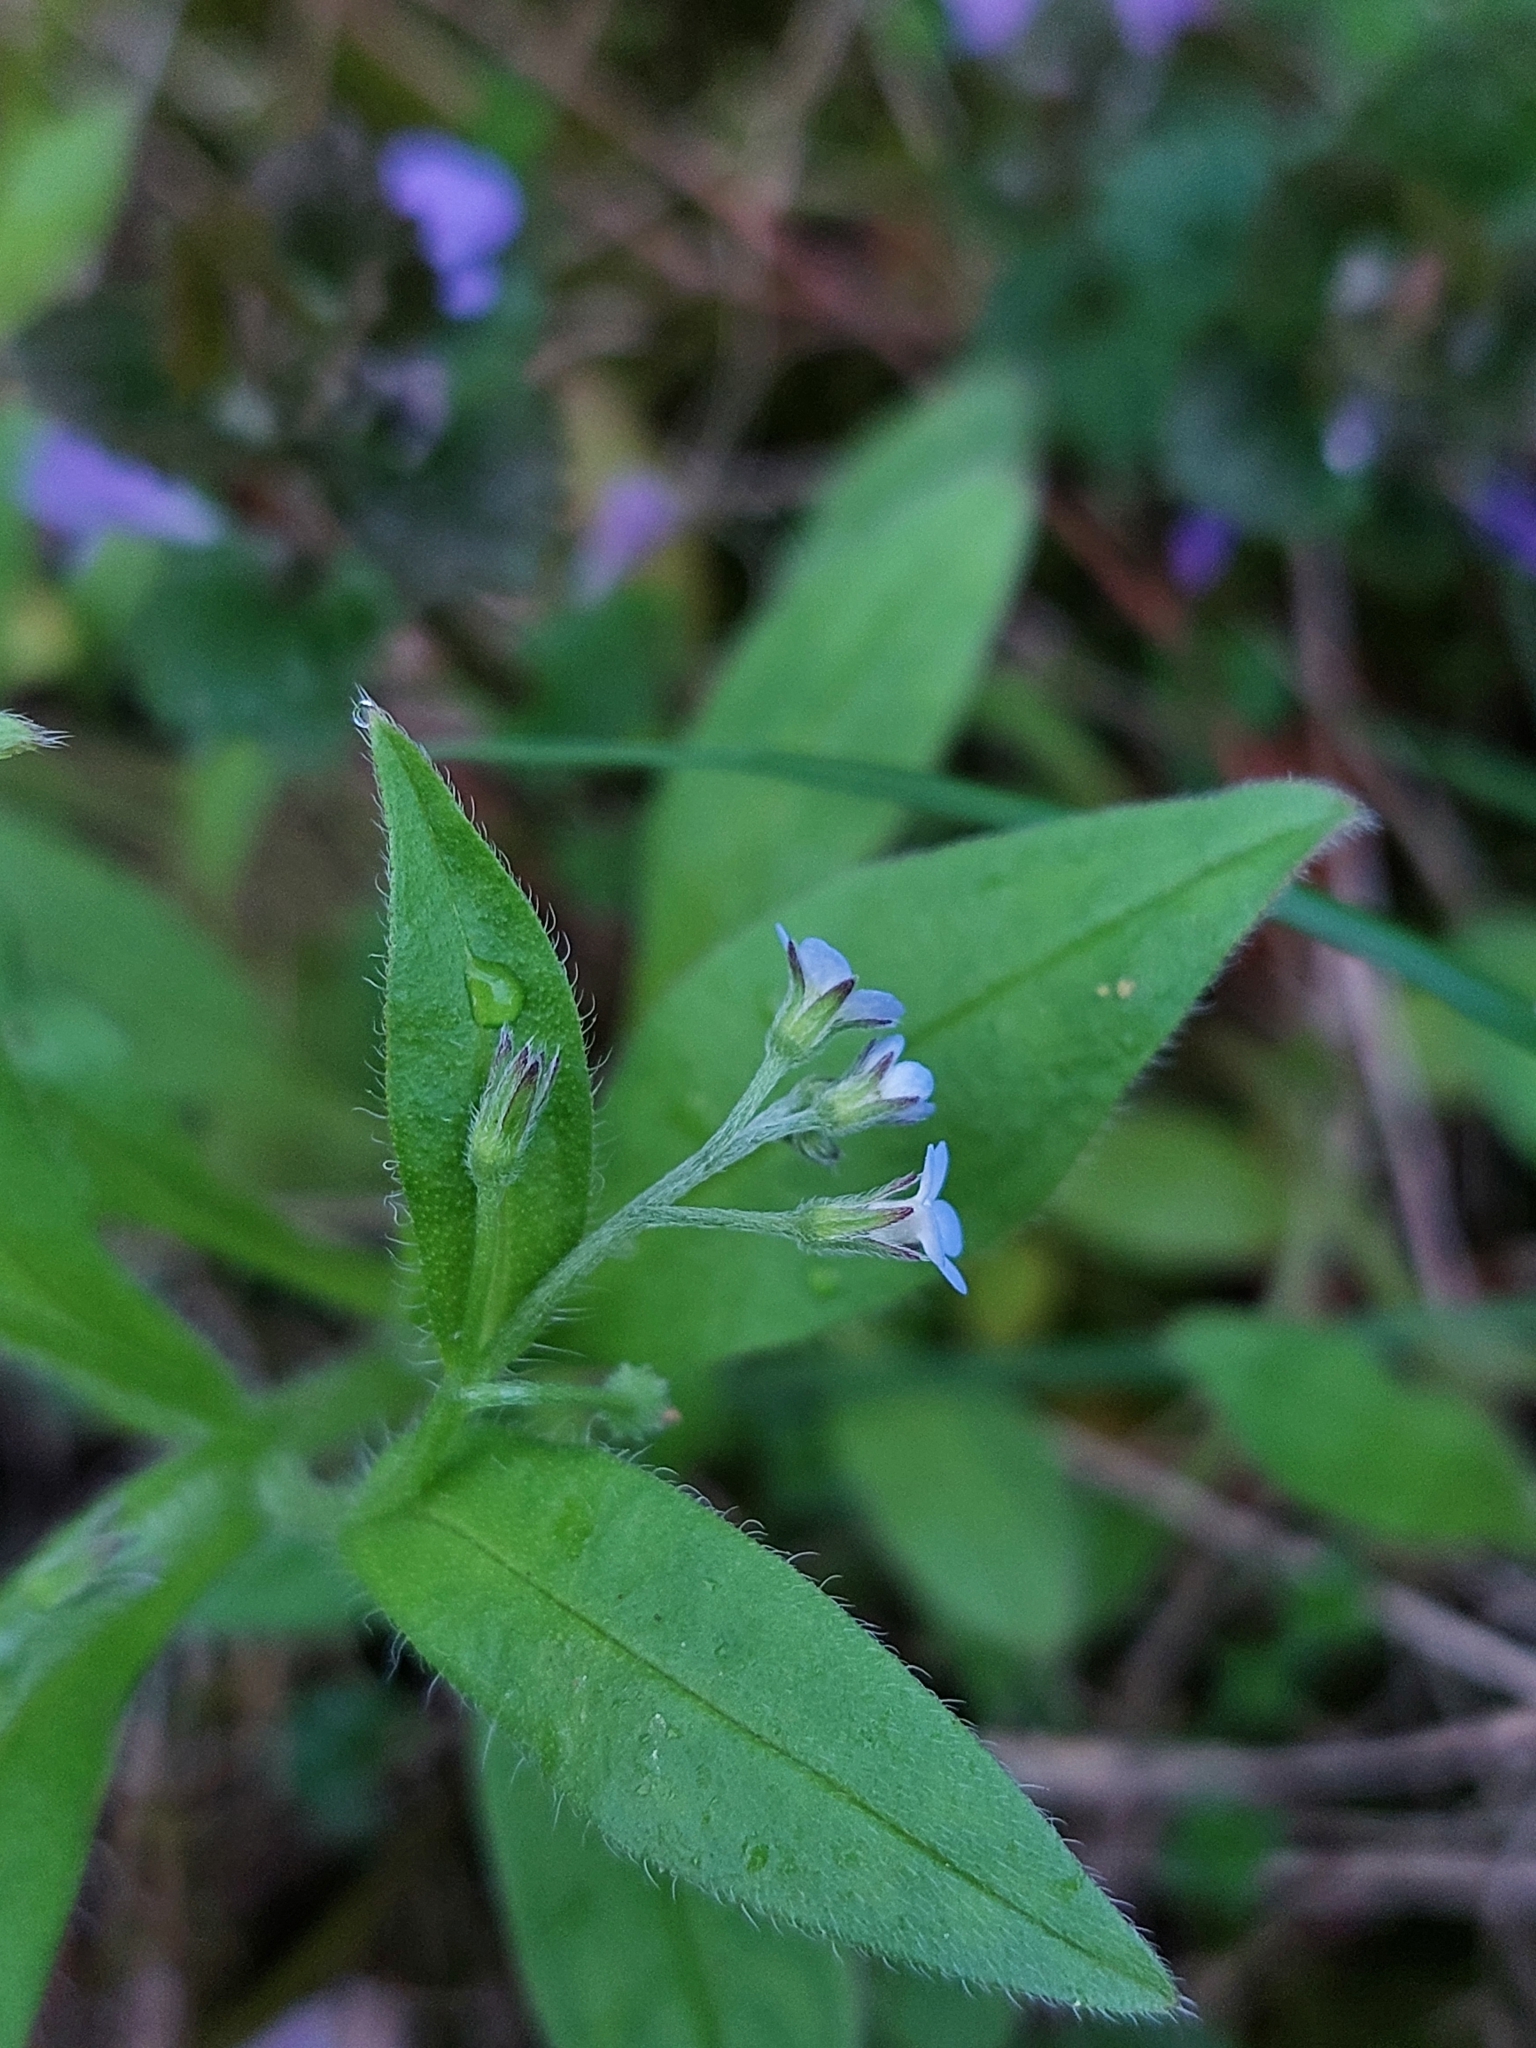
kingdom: Plantae
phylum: Tracheophyta
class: Magnoliopsida
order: Boraginales
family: Boraginaceae
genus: Myosotis
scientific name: Myosotis sparsiflora
